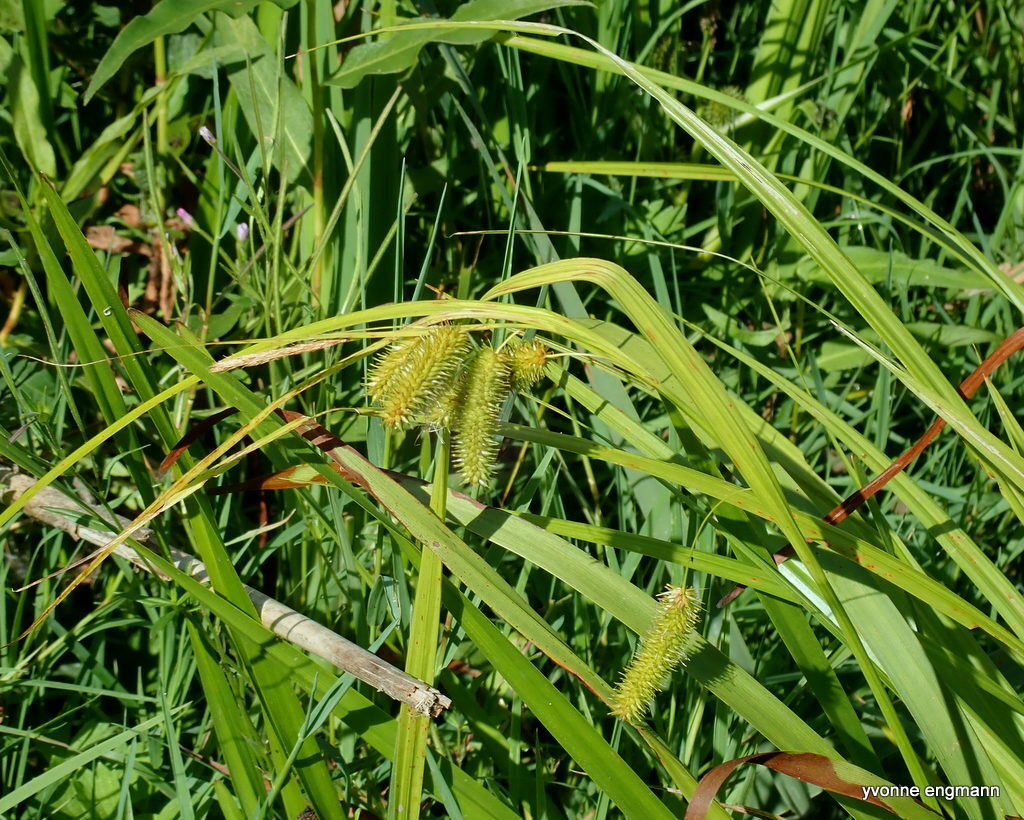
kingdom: Plantae
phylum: Tracheophyta
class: Liliopsida
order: Poales
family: Cyperaceae
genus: Carex
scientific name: Carex pseudocyperus
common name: Cyperus sedge
